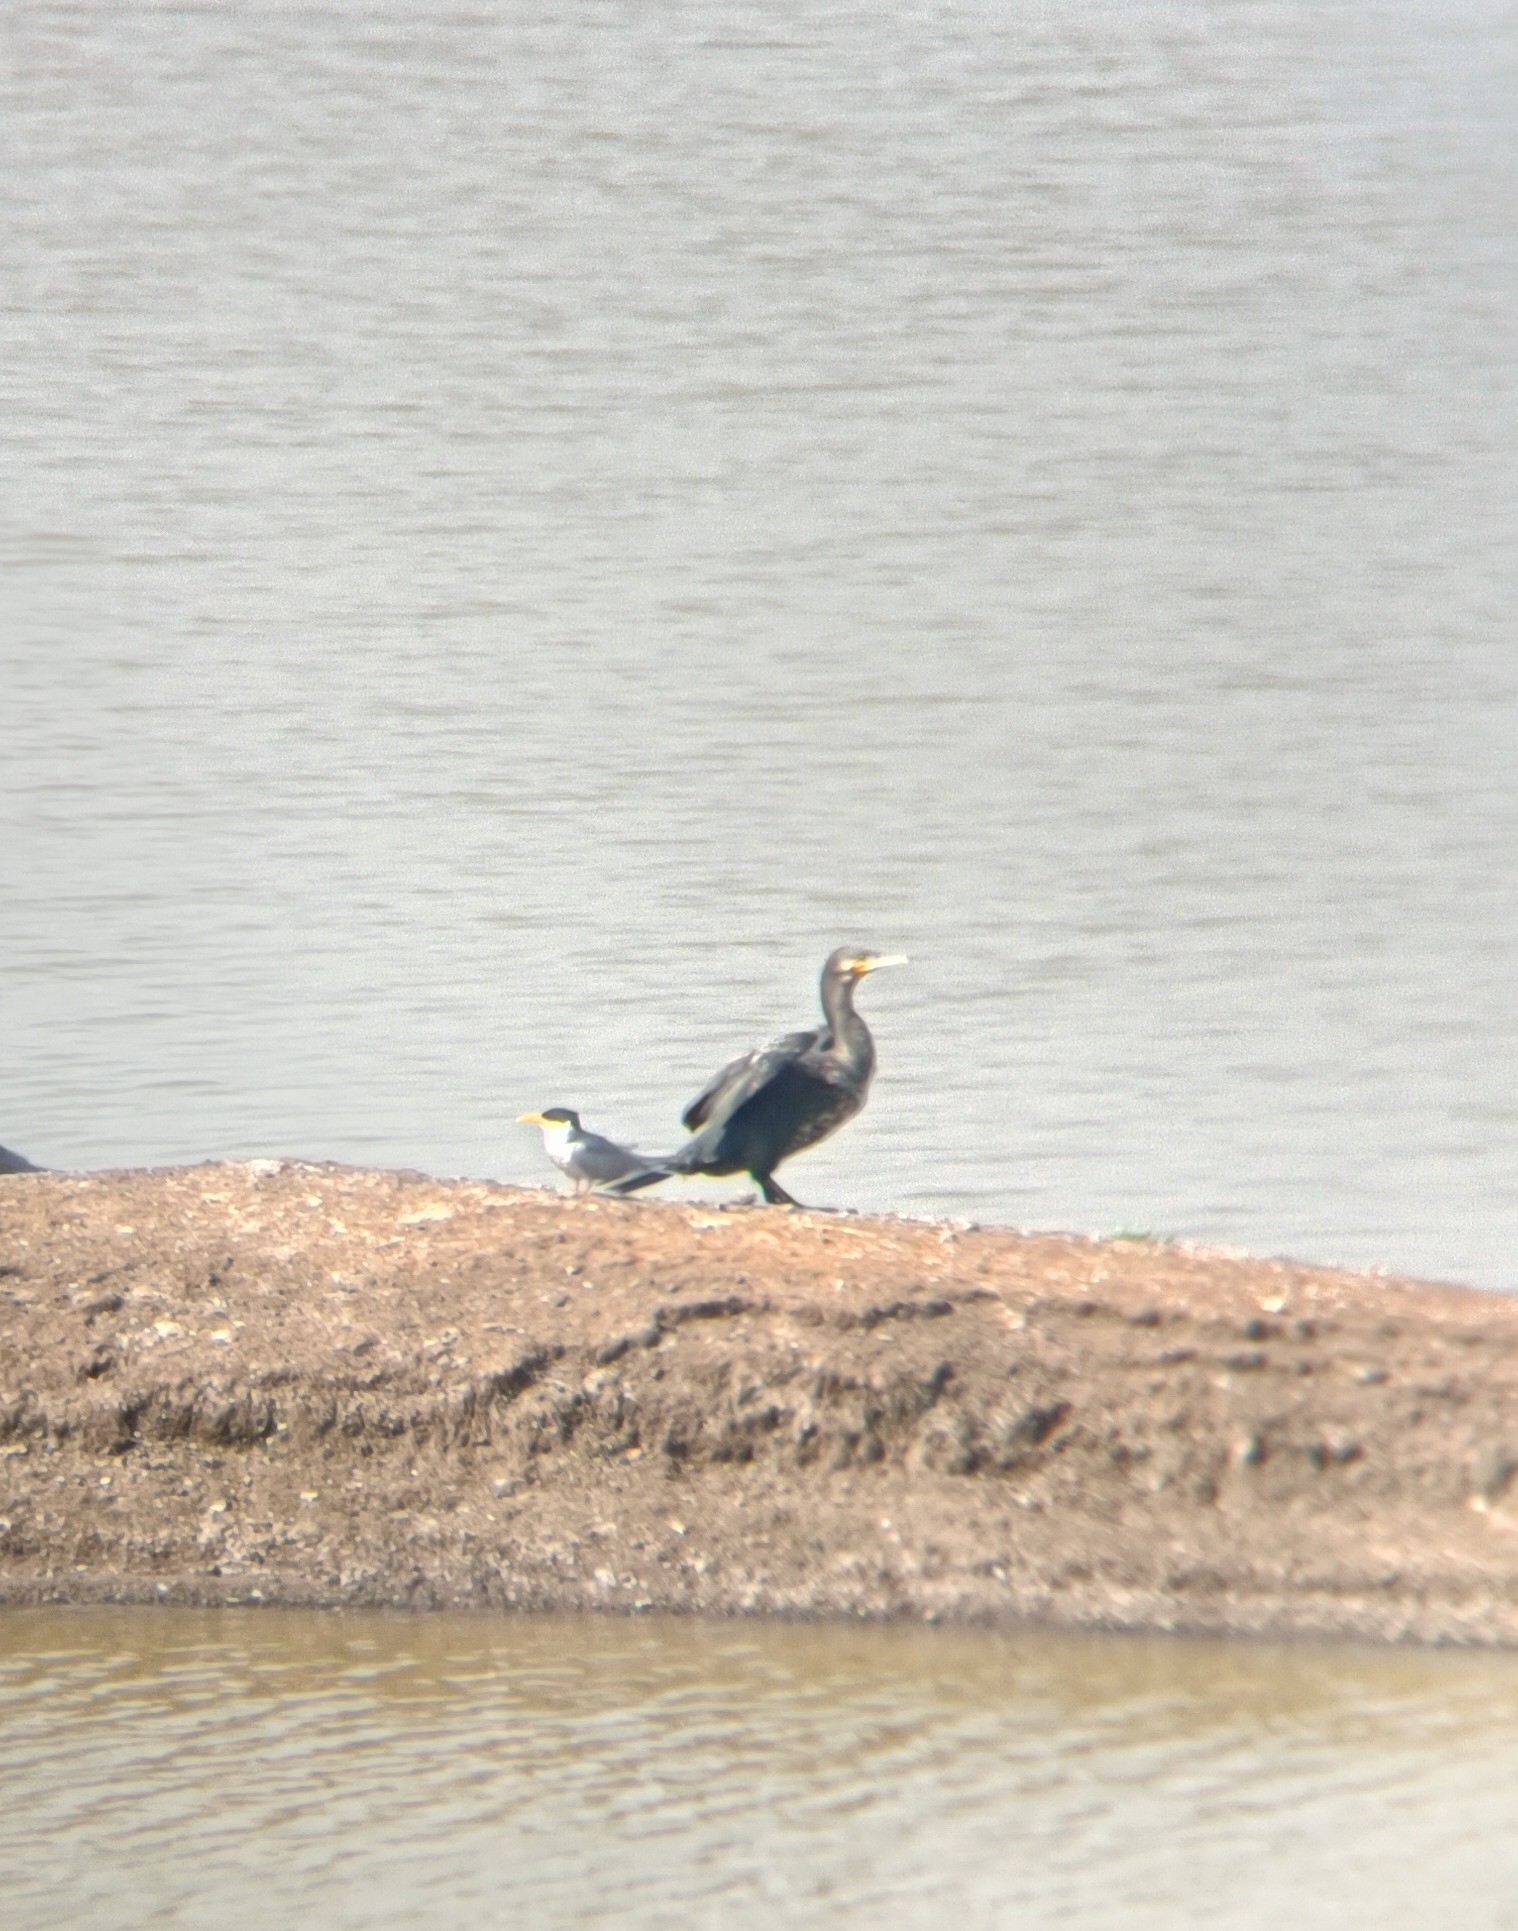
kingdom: Animalia
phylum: Chordata
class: Aves
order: Suliformes
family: Phalacrocoracidae
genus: Phalacrocorax
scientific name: Phalacrocorax carbo
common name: Great cormorant
